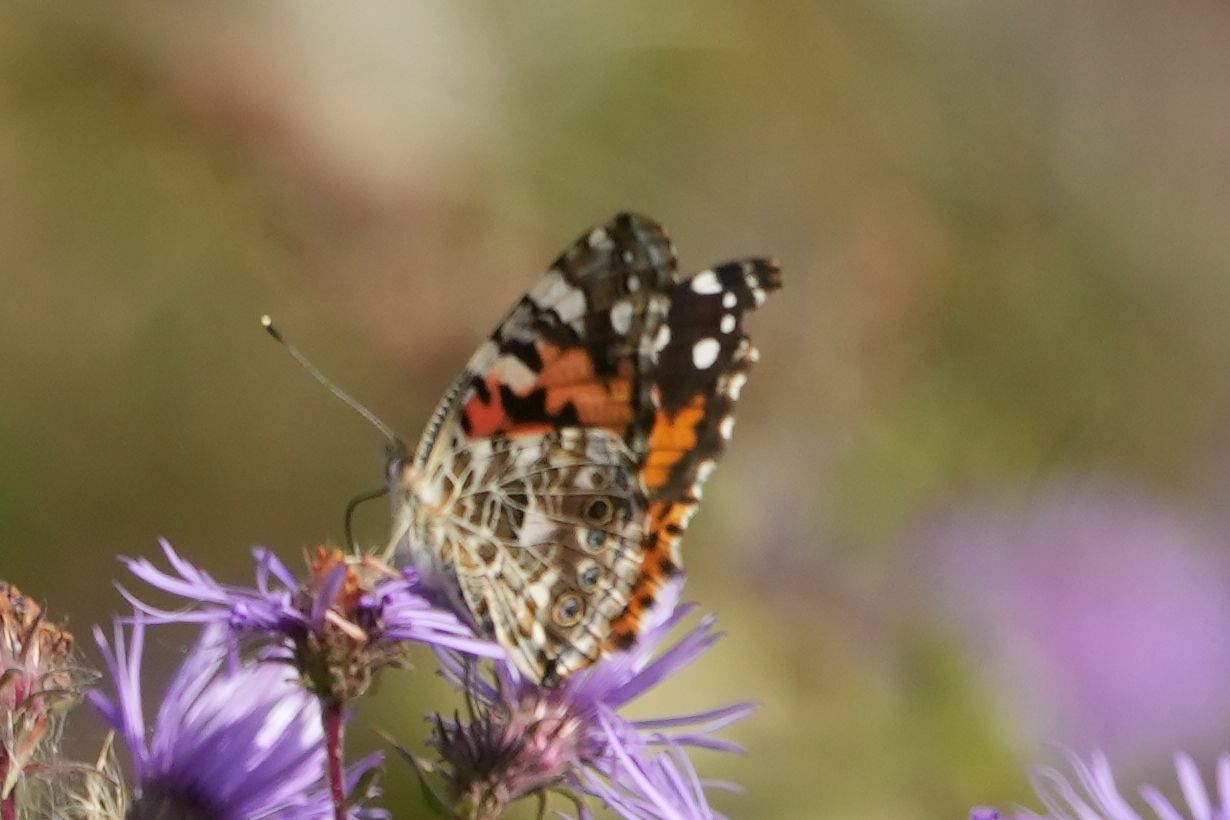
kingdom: Animalia
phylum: Arthropoda
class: Insecta
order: Lepidoptera
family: Nymphalidae
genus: Vanessa
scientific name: Vanessa cardui
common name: Painted lady
